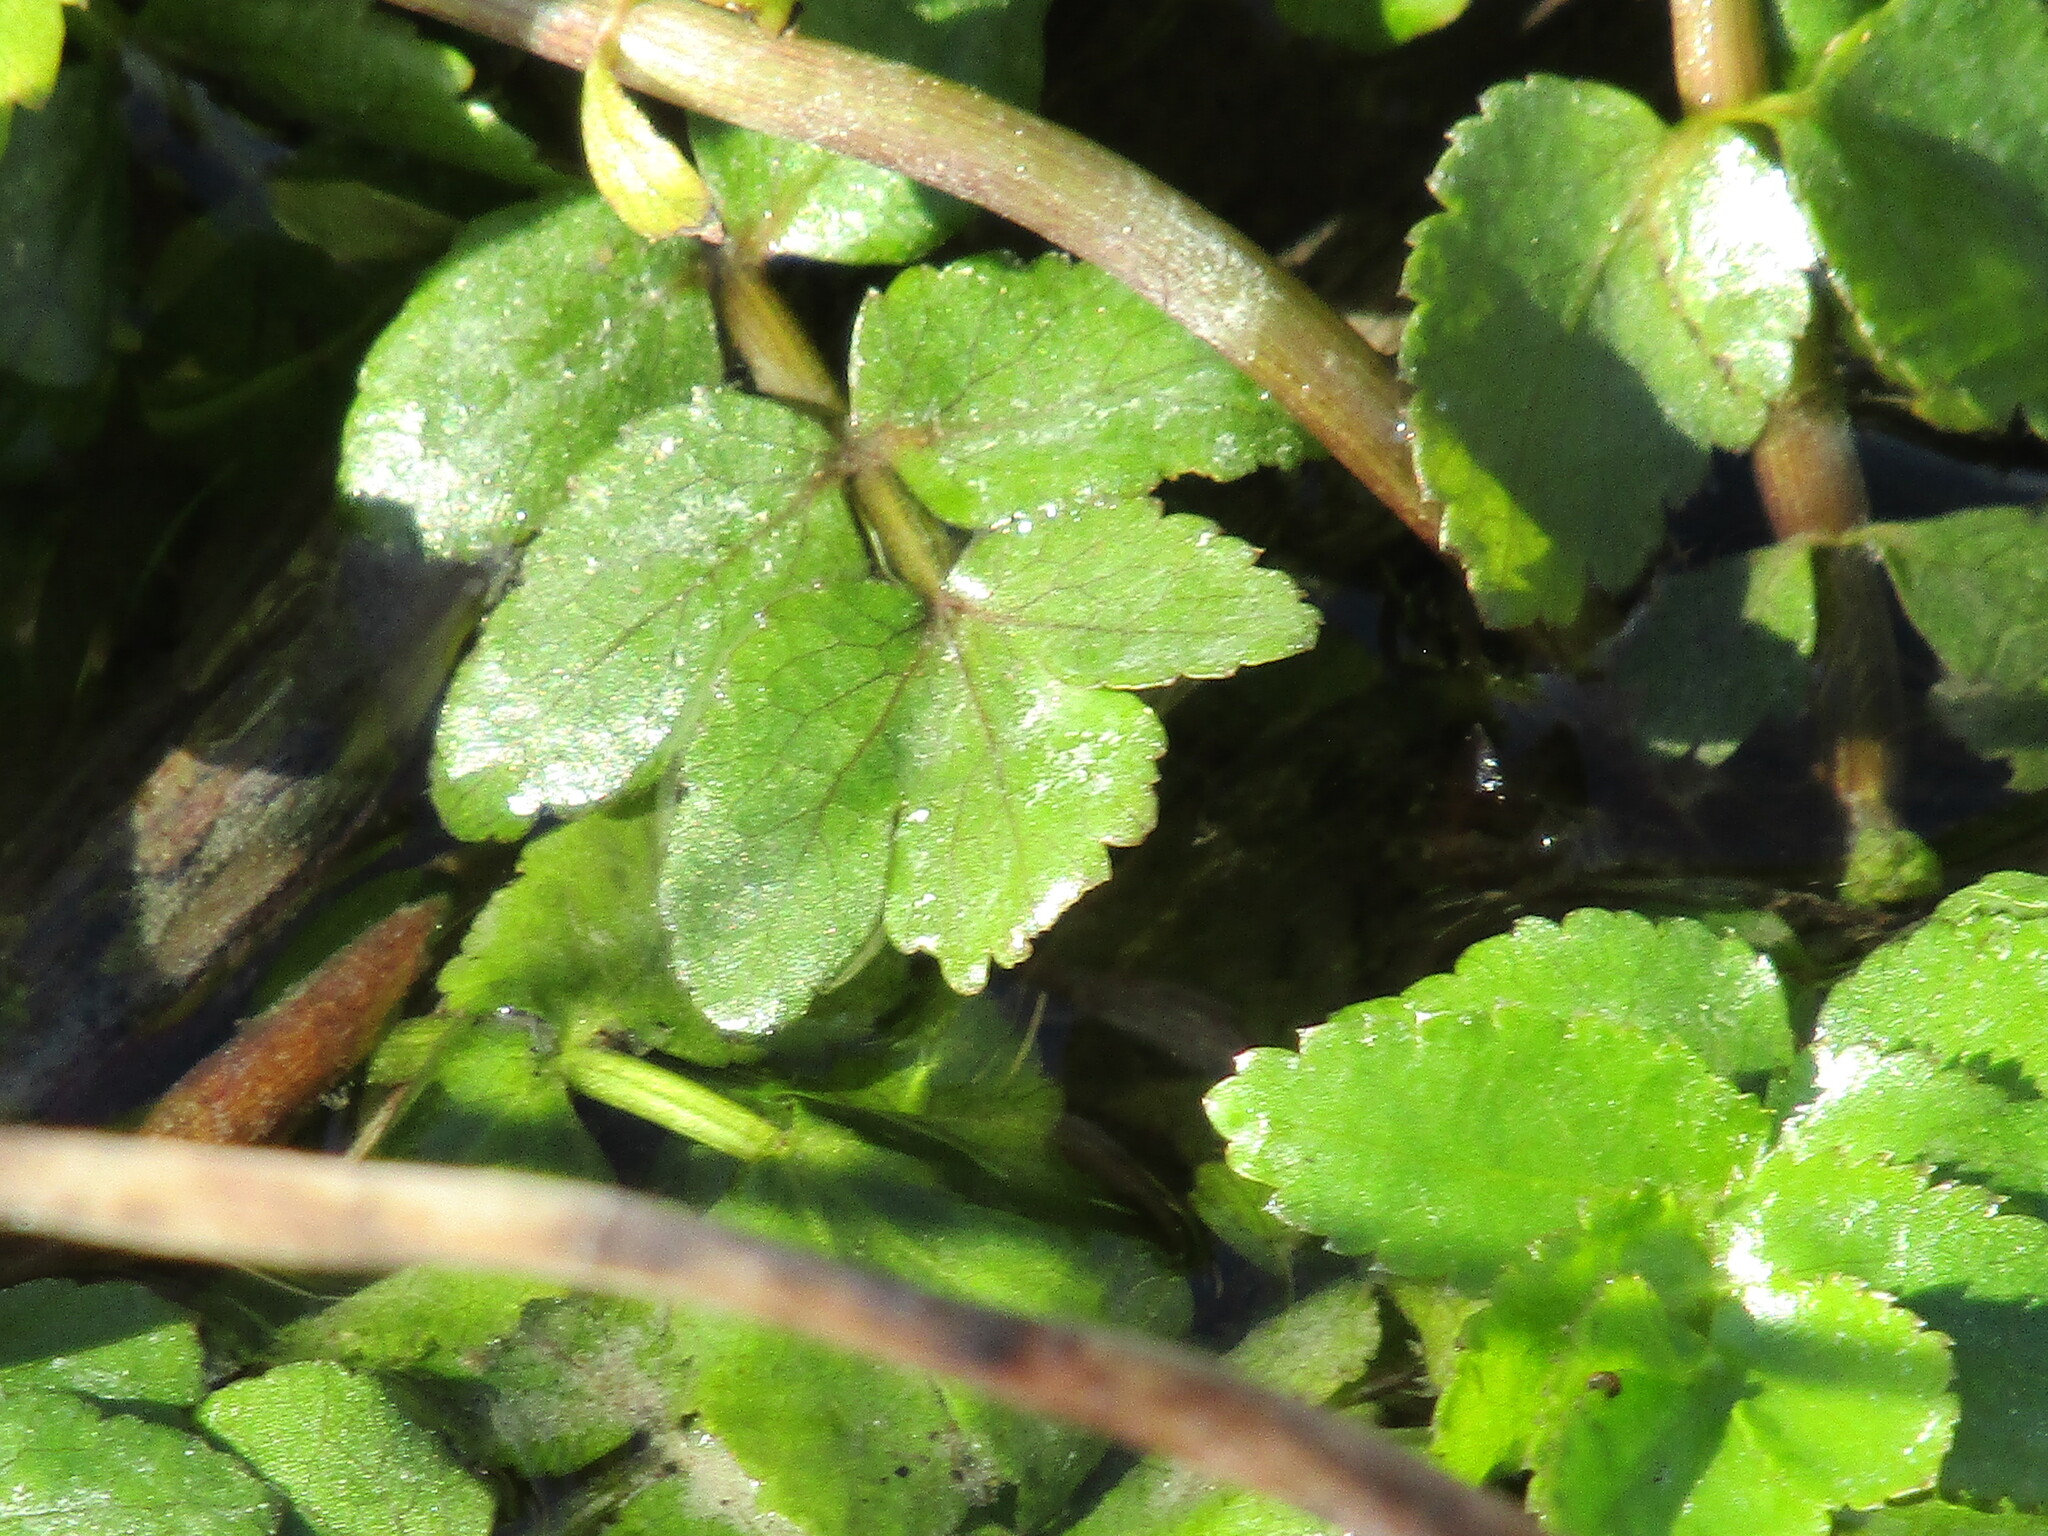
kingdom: Plantae
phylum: Tracheophyta
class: Magnoliopsida
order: Apiales
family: Apiaceae
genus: Berula
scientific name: Berula erecta
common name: Lesser water-parsnip
